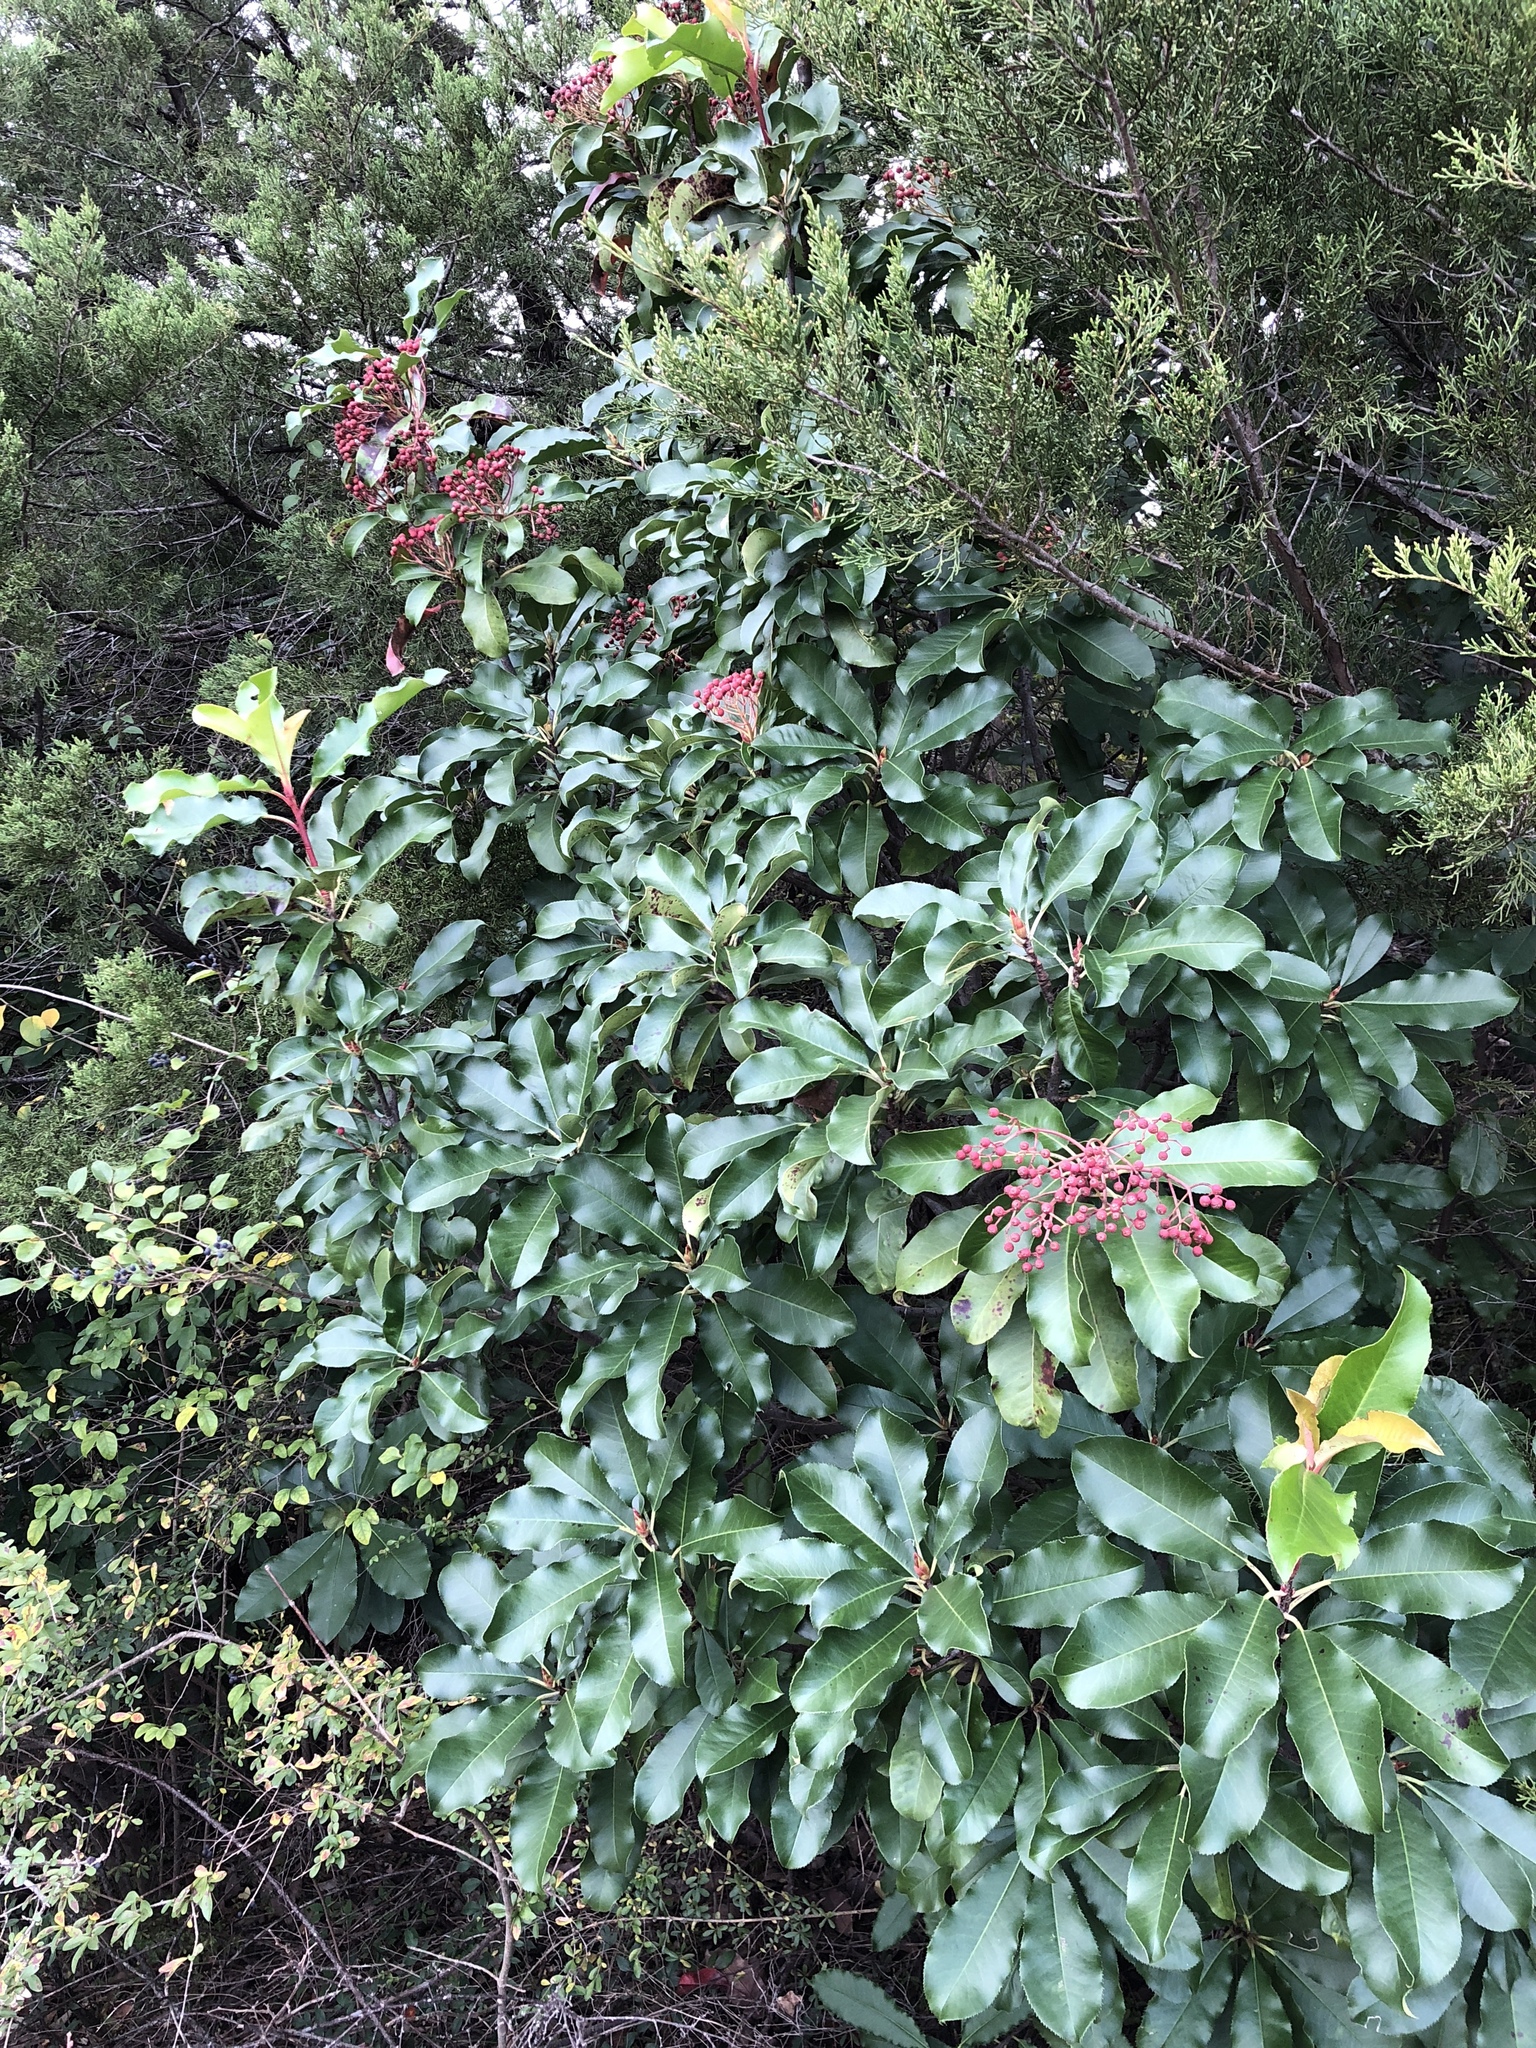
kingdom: Plantae
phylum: Tracheophyta
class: Magnoliopsida
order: Rosales
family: Rosaceae
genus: Photinia
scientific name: Photinia serratifolia
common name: Taiwanese photinia
